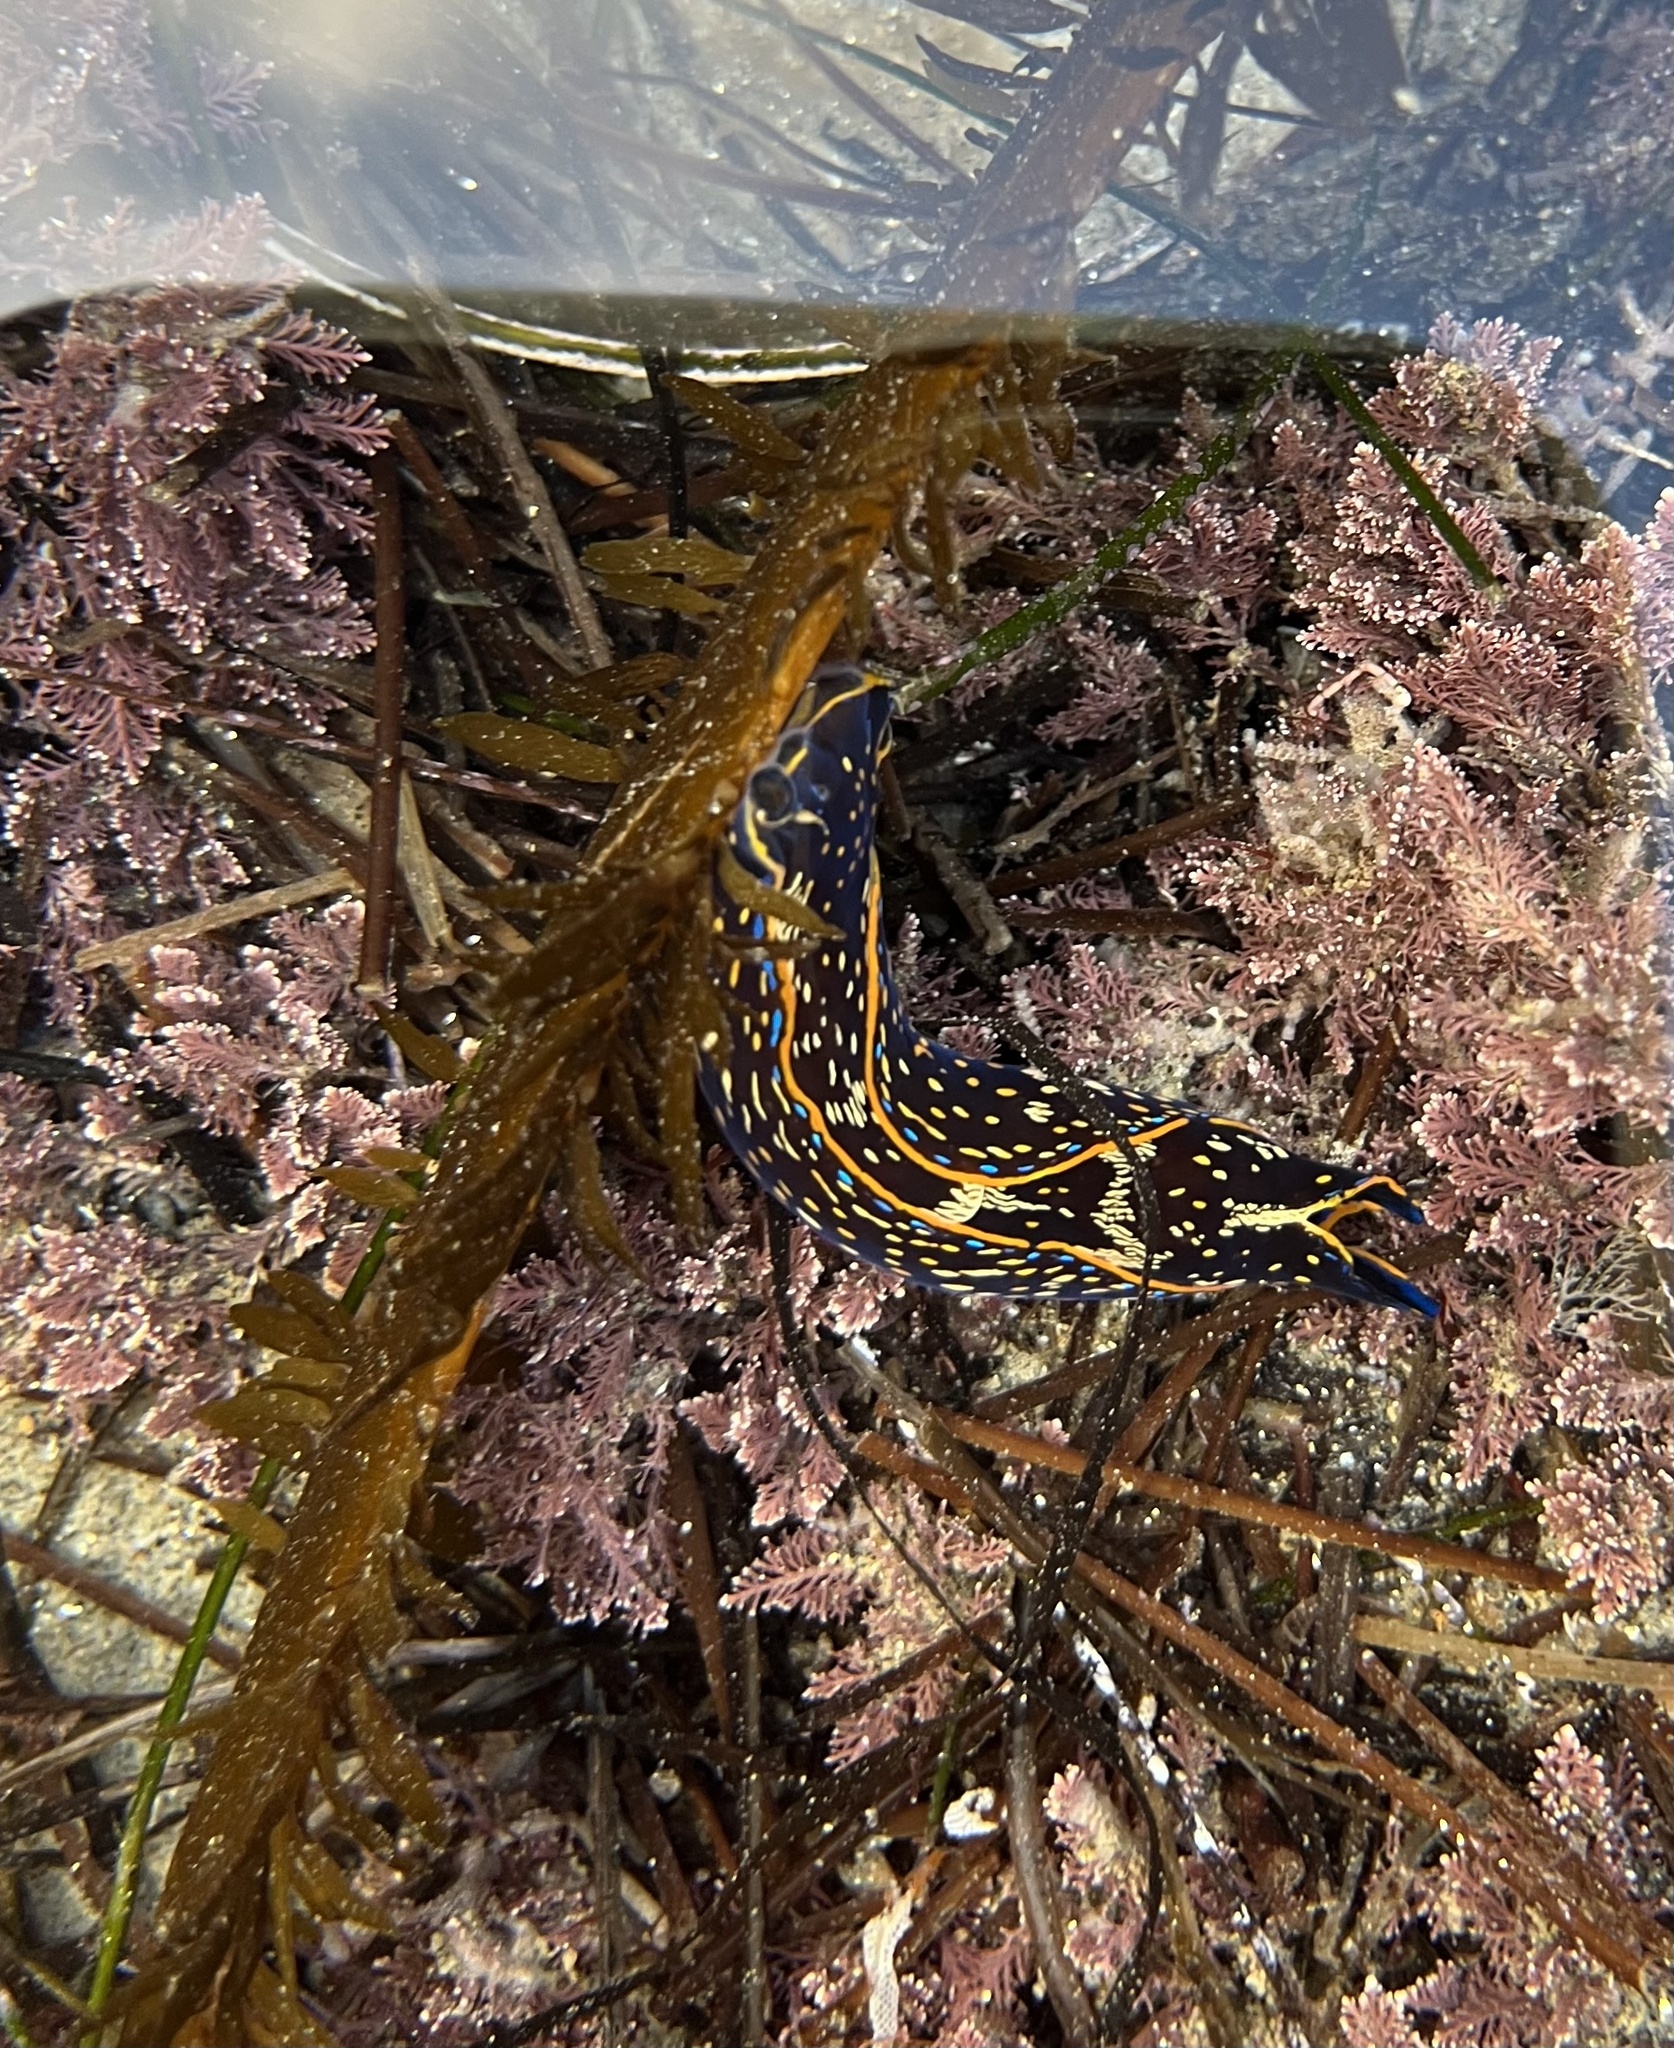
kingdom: Animalia
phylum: Mollusca
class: Gastropoda
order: Cephalaspidea
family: Aglajidae
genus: Navanax
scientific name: Navanax inermis
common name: California aglaja
